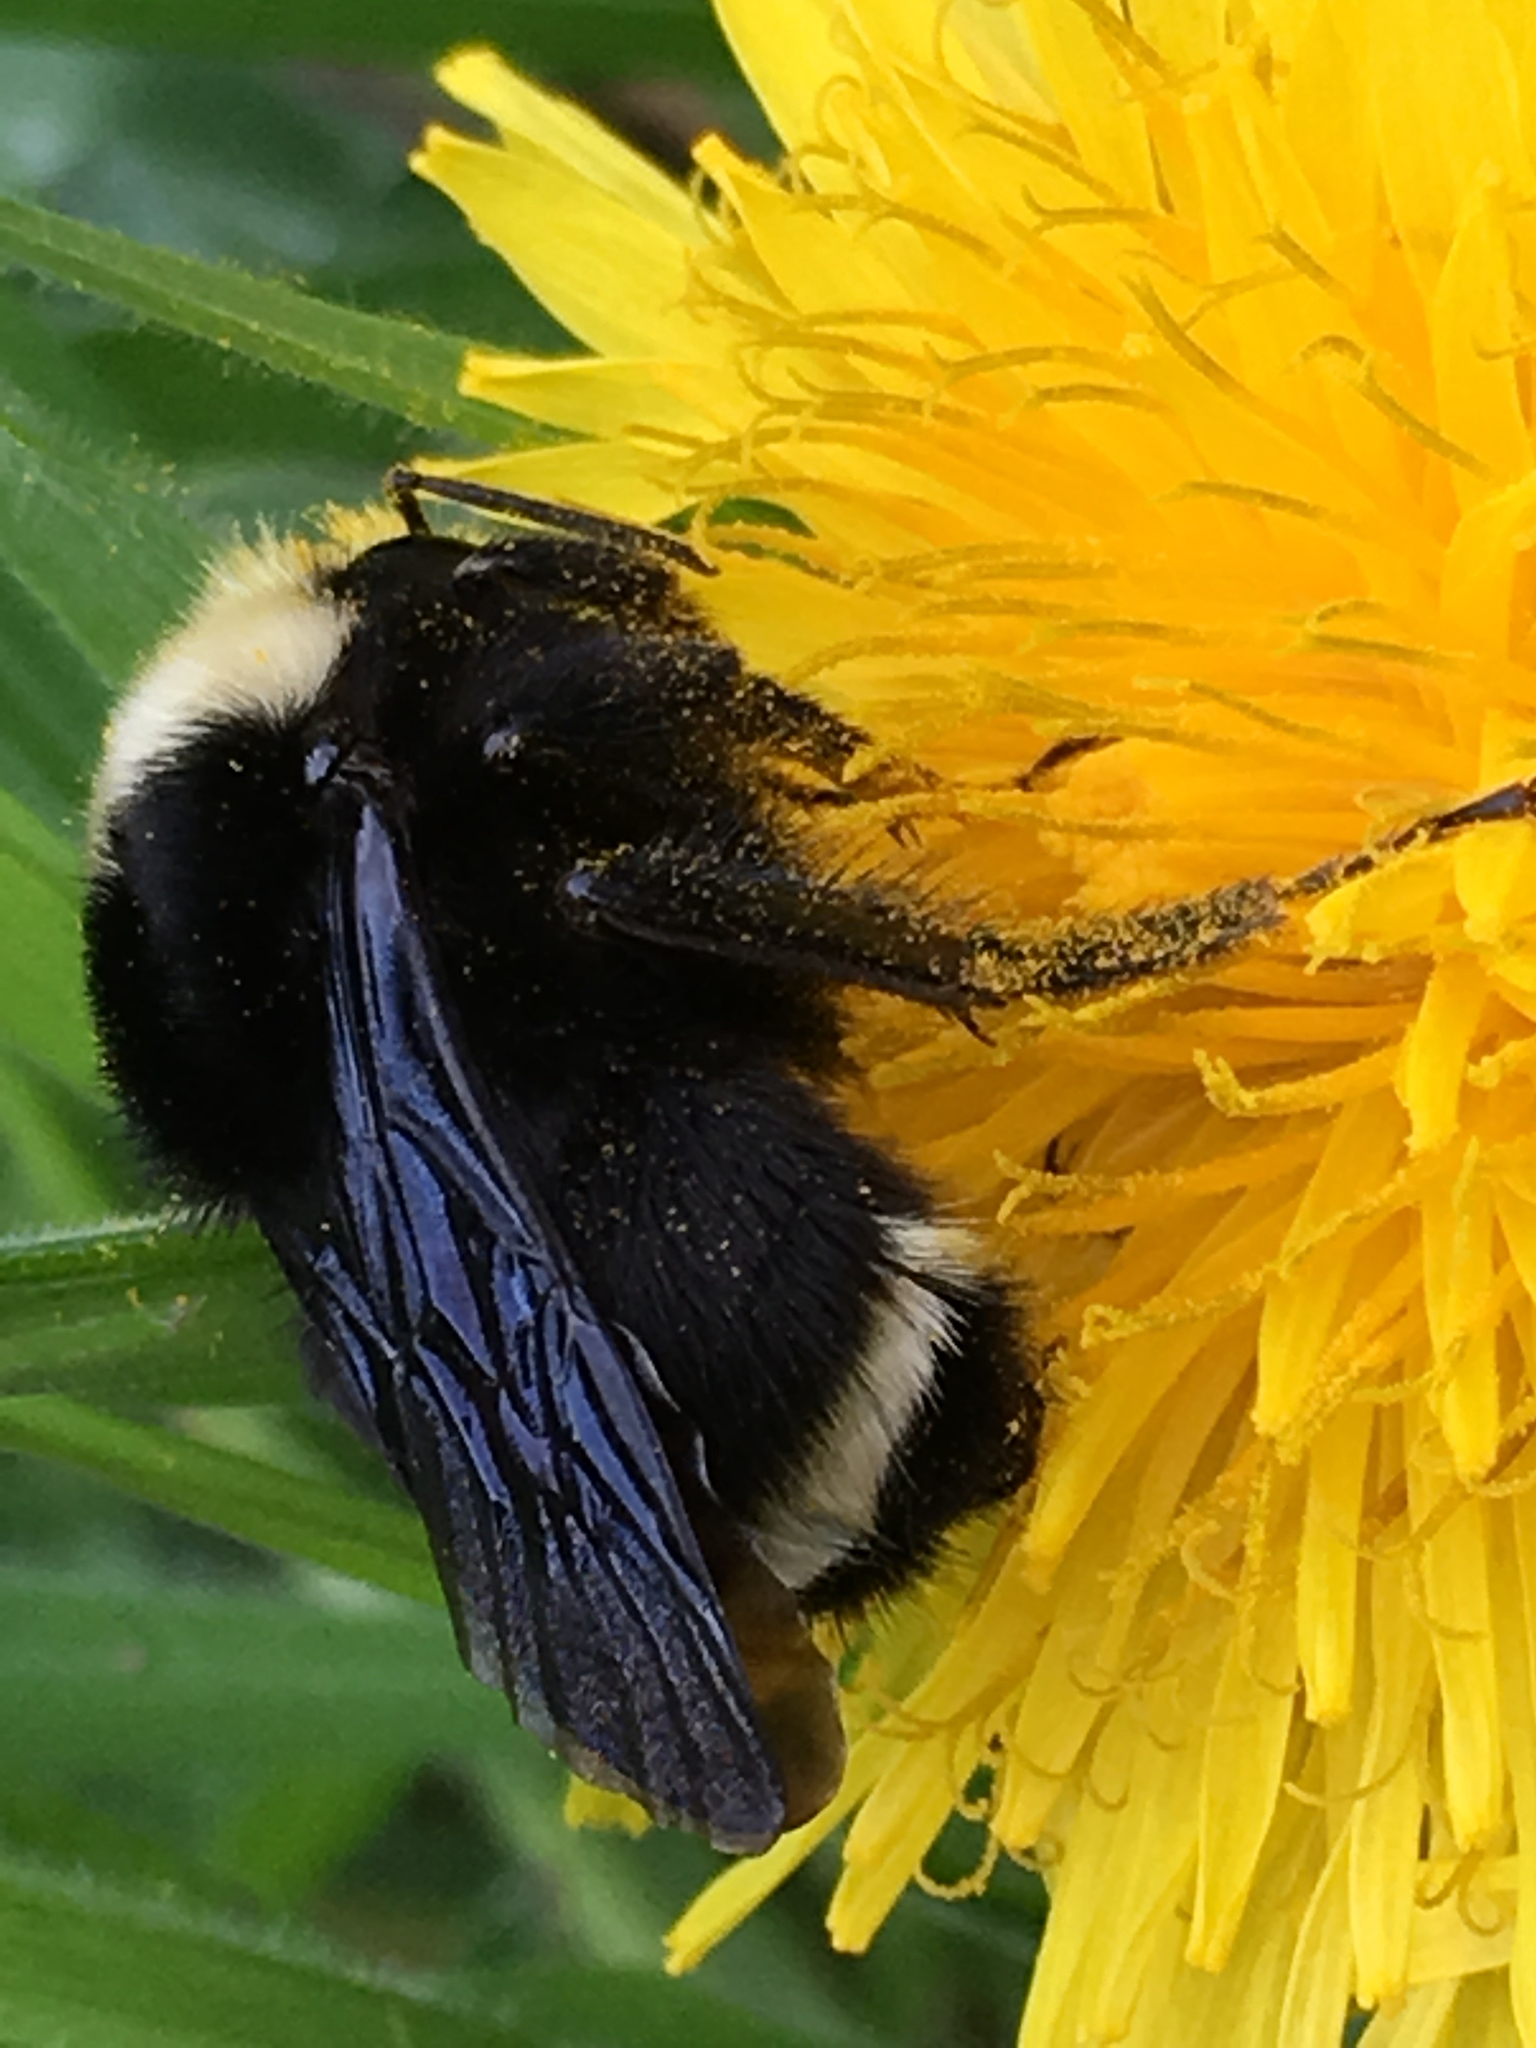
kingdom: Animalia
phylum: Arthropoda
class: Insecta
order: Hymenoptera
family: Apidae
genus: Bombus
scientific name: Bombus vosnesenskii
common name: Vosnesensky bumble bee
